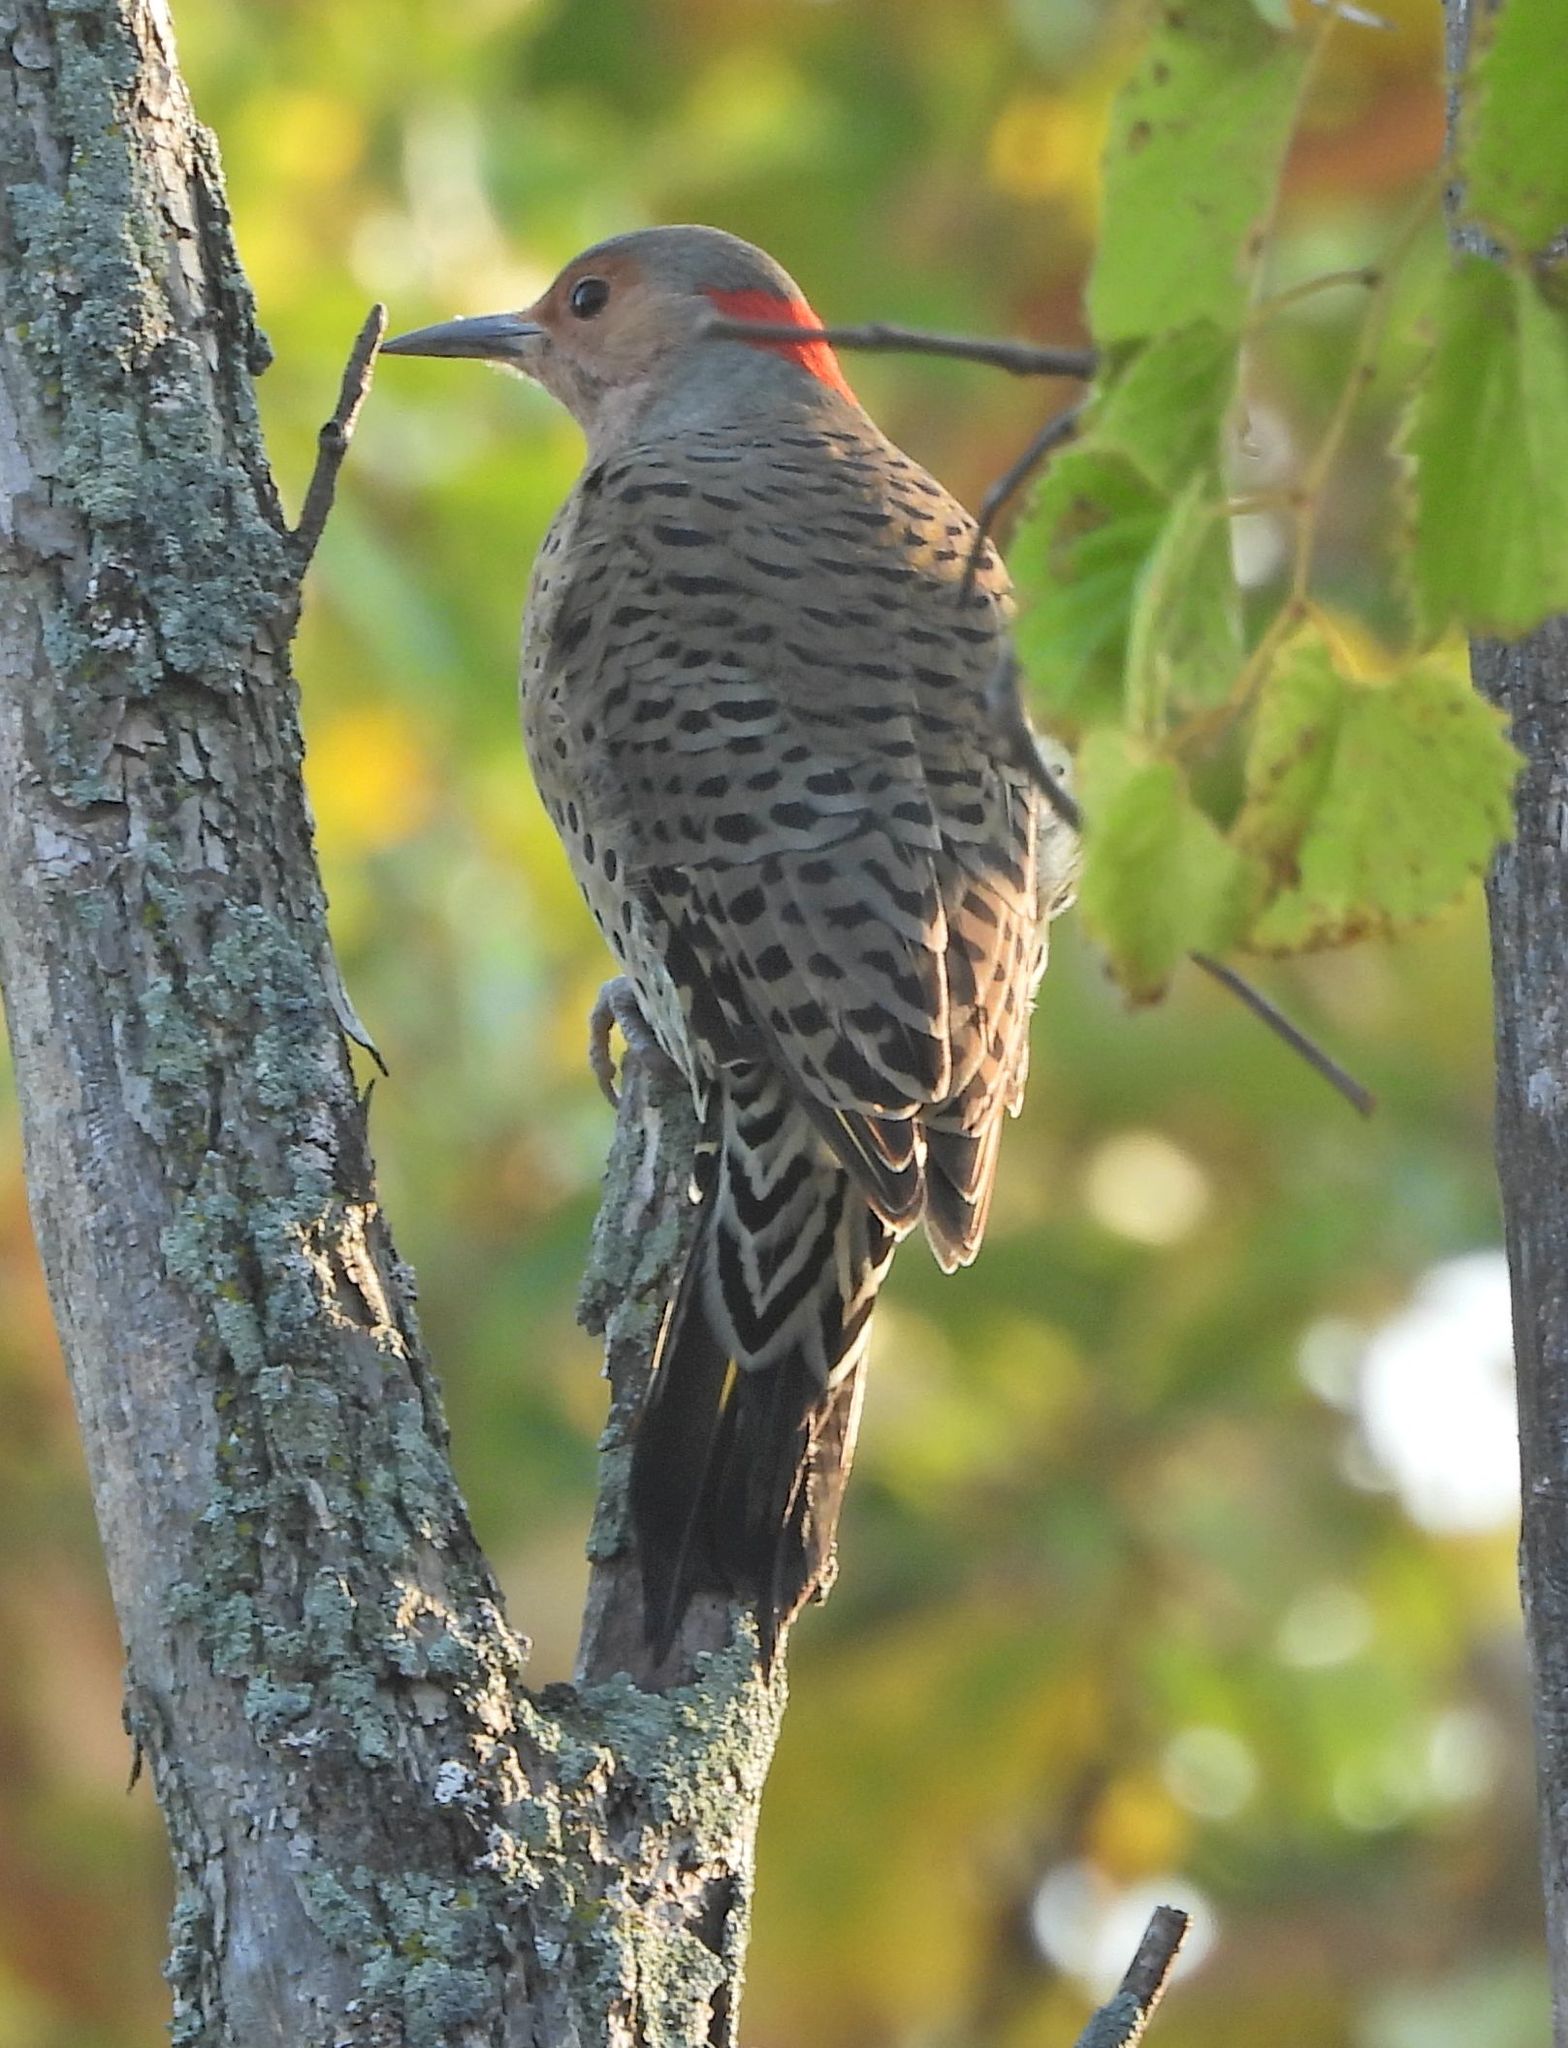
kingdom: Animalia
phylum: Chordata
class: Aves
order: Piciformes
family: Picidae
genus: Colaptes
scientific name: Colaptes auratus
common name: Northern flicker
